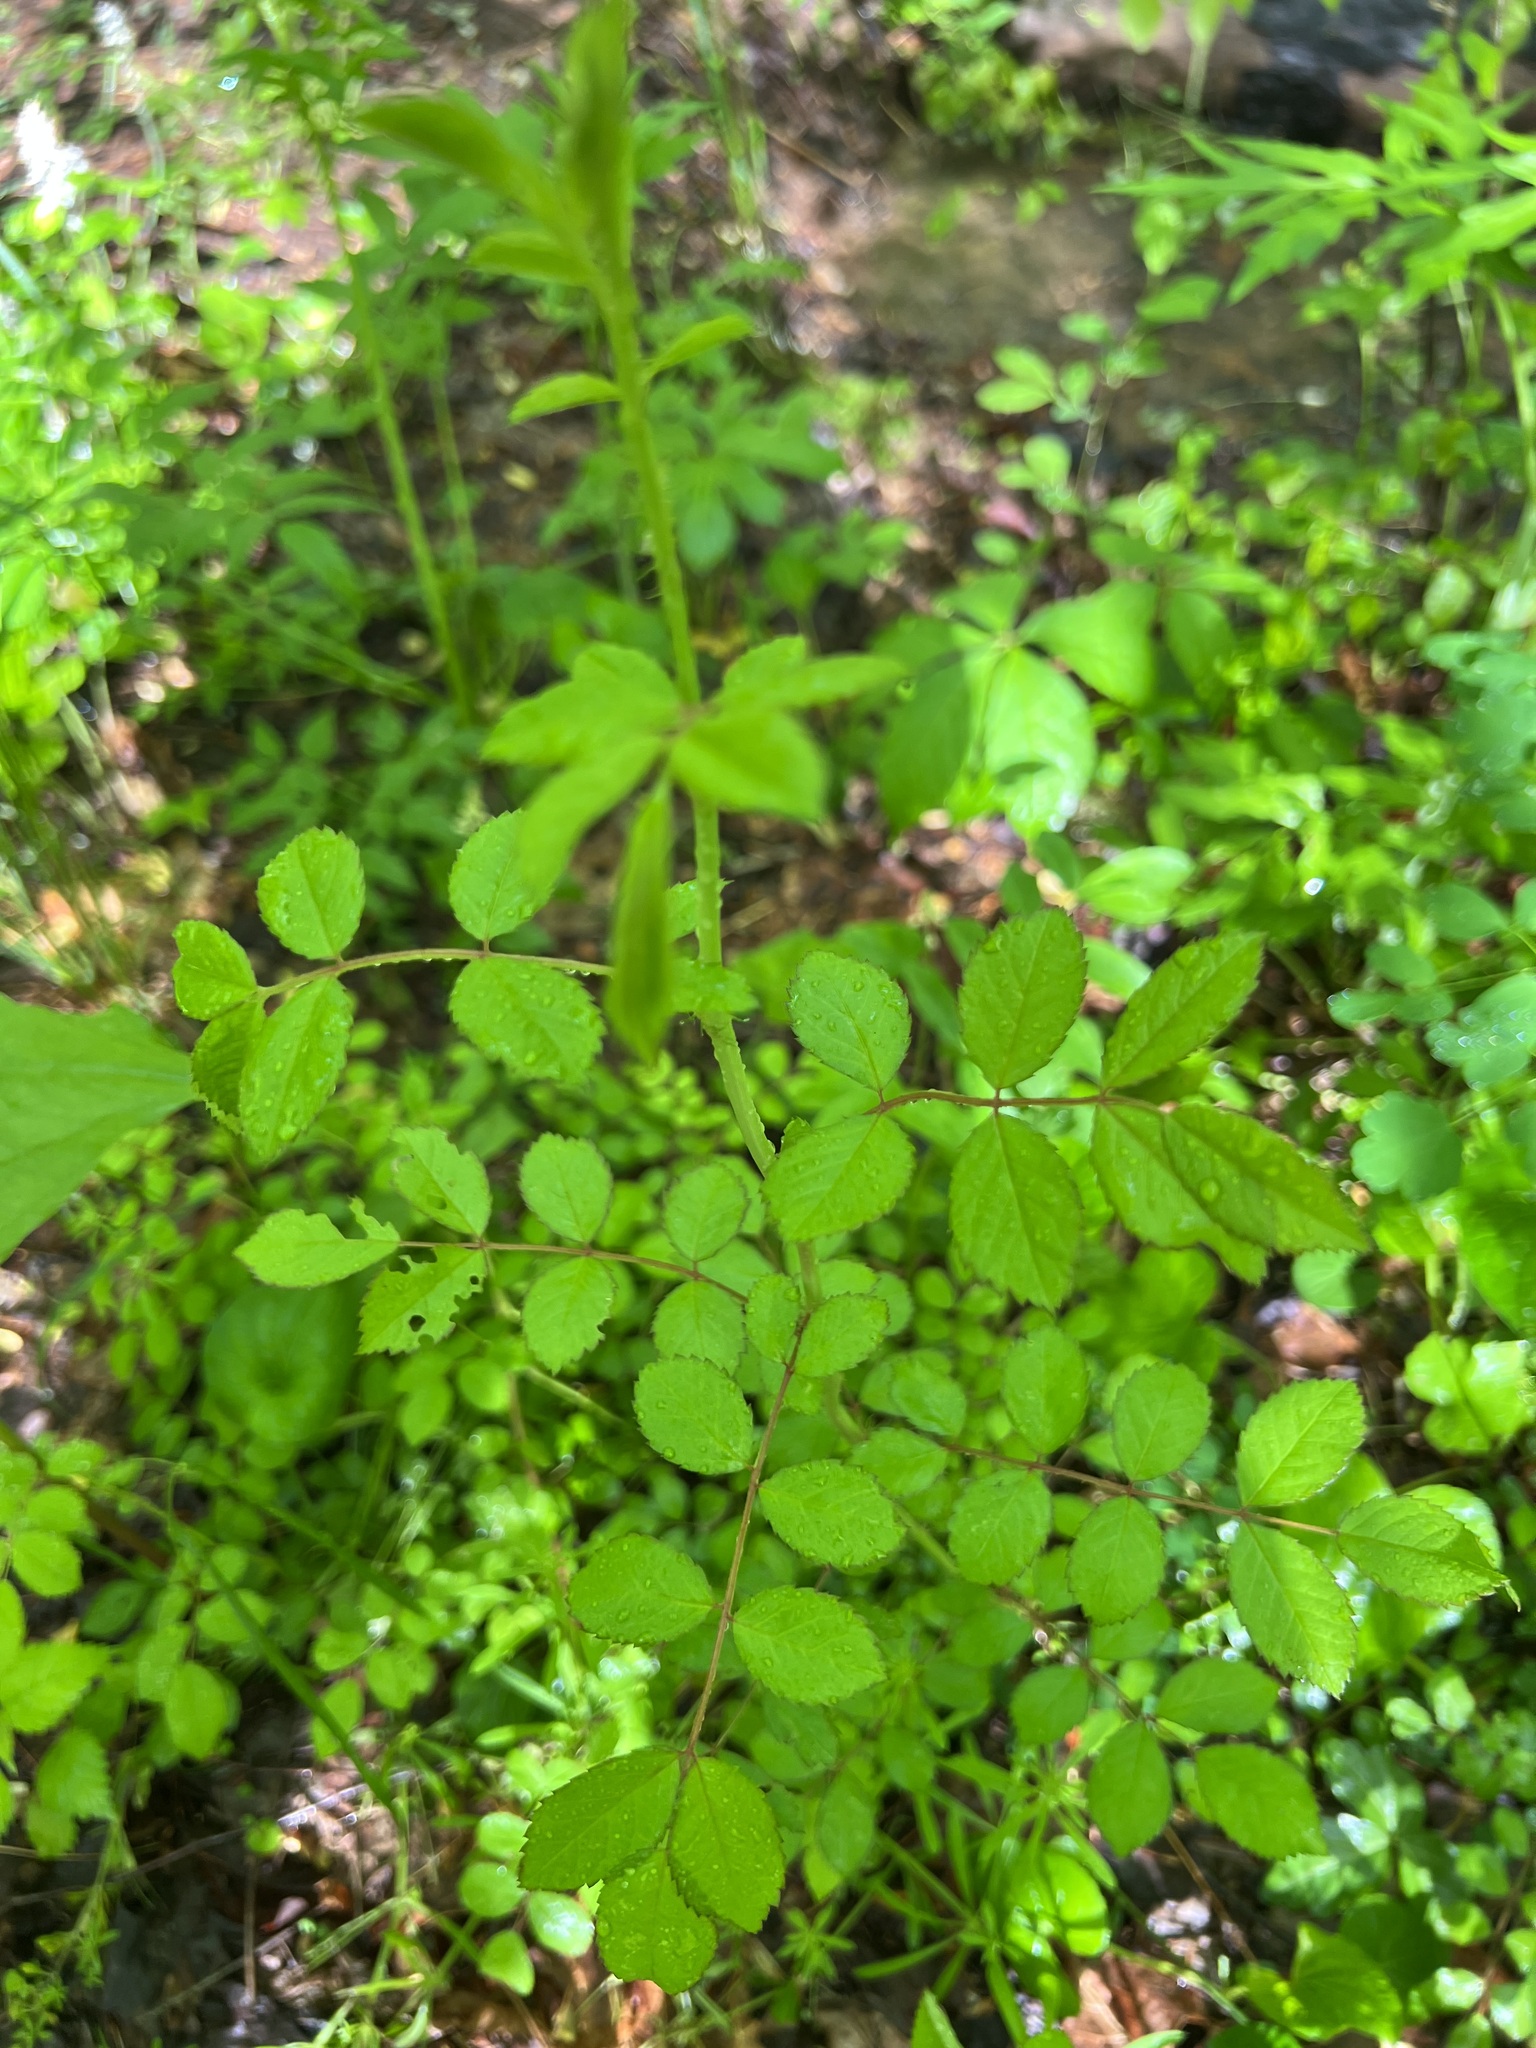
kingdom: Plantae
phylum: Tracheophyta
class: Magnoliopsida
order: Rosales
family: Rosaceae
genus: Rosa
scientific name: Rosa multiflora
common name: Multiflora rose
